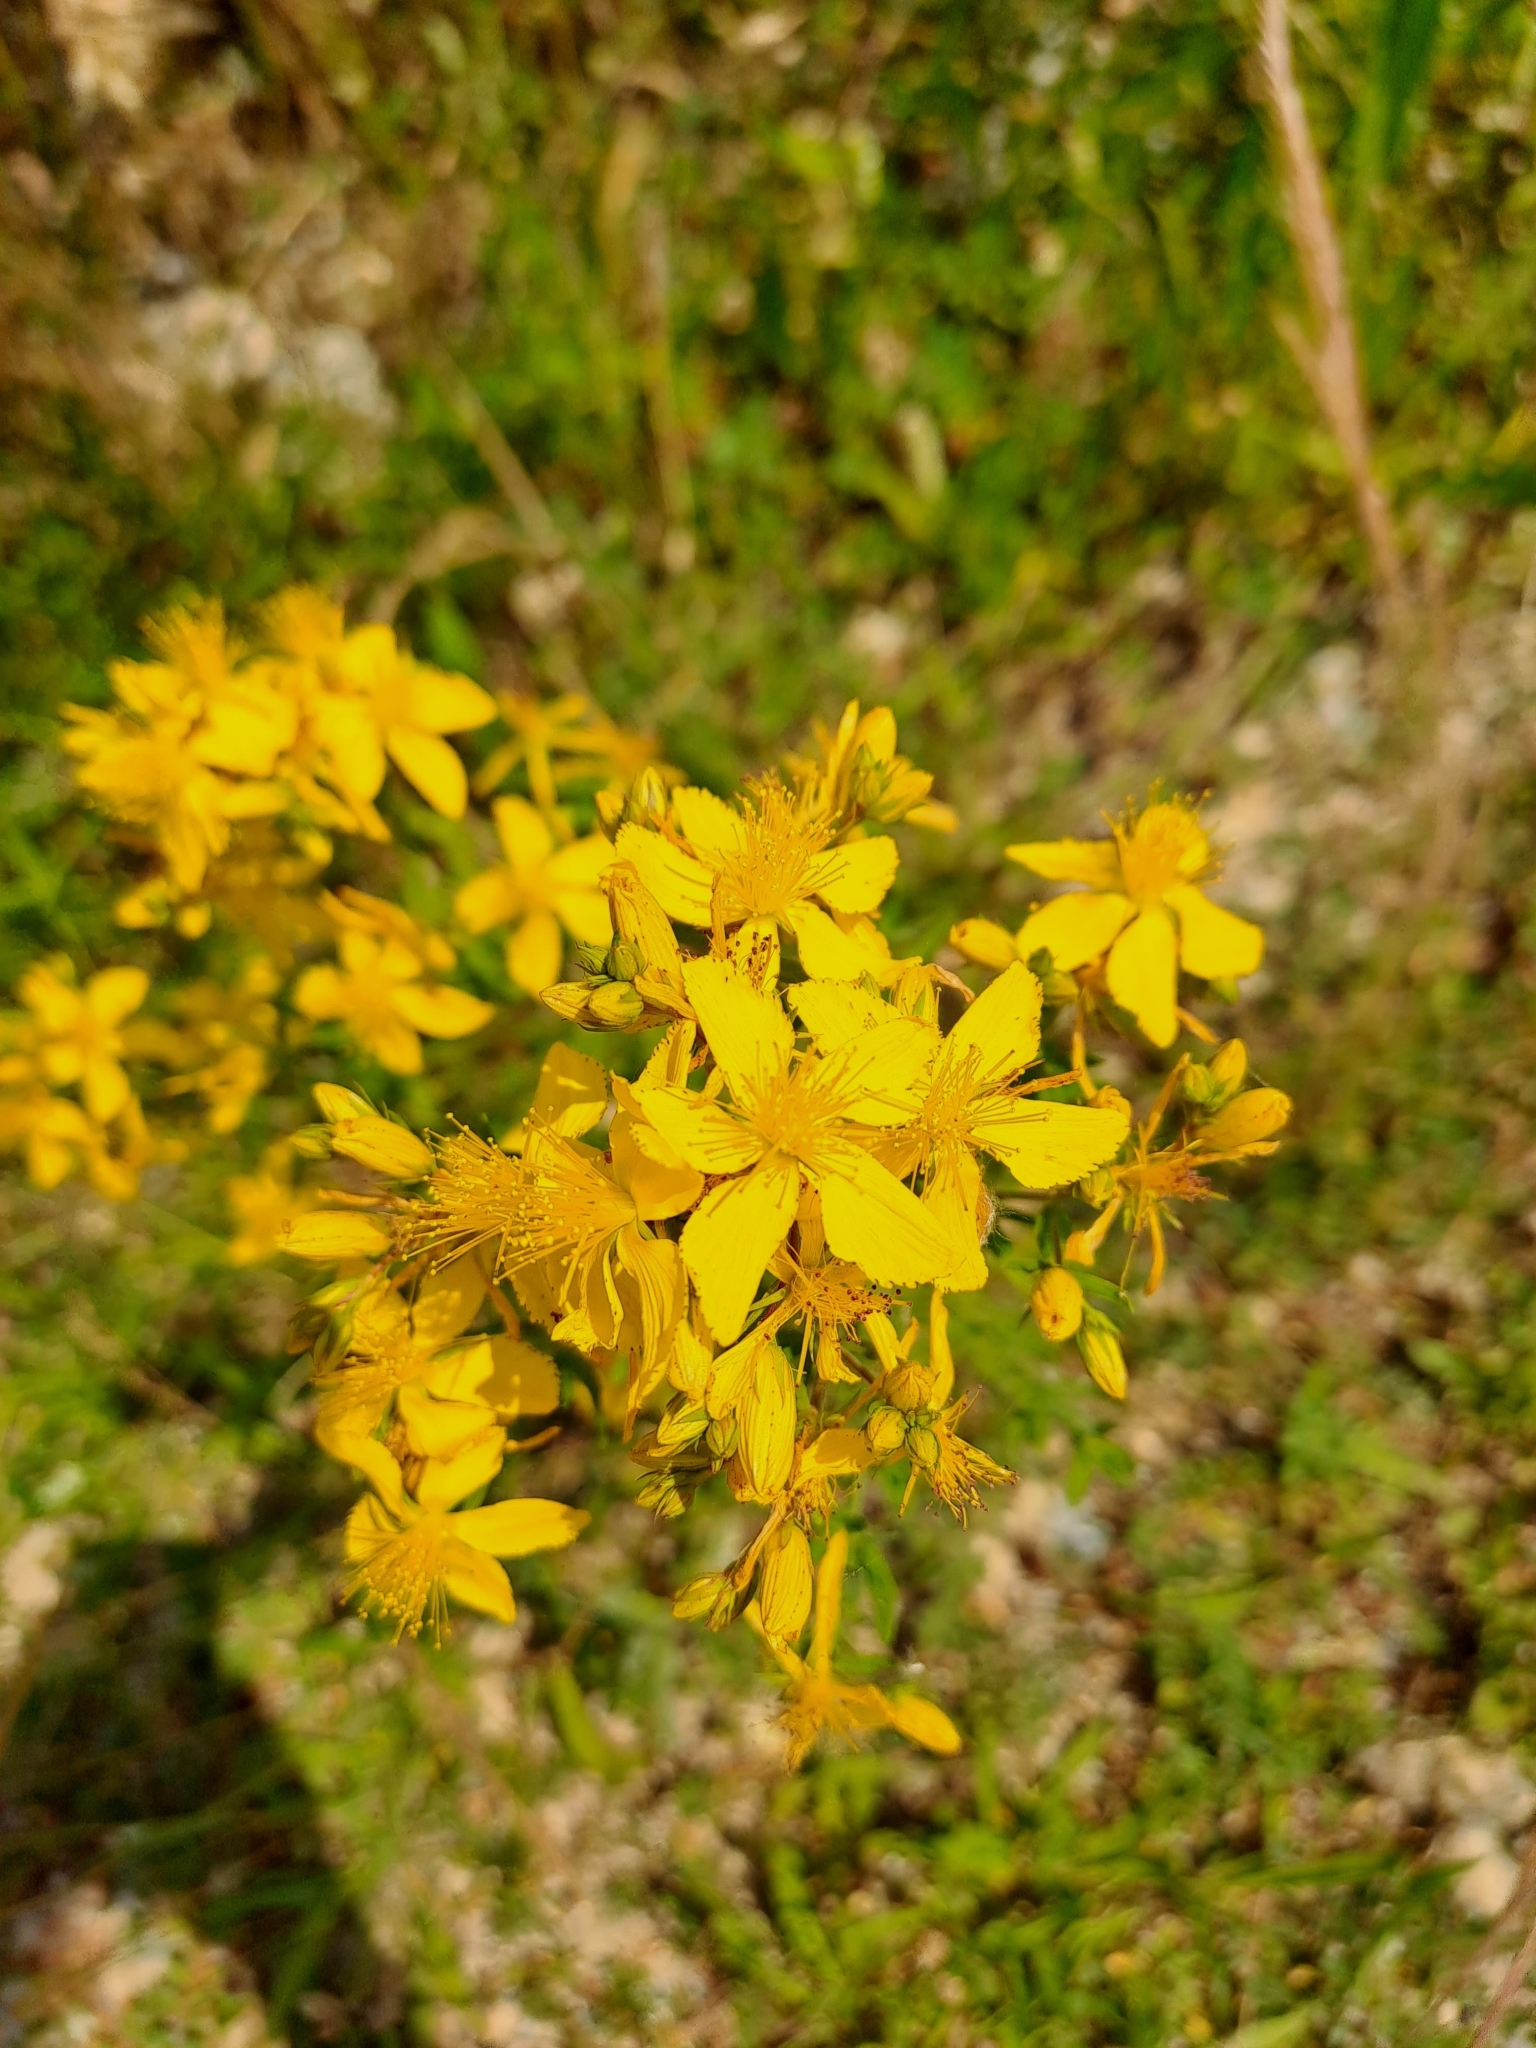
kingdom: Plantae
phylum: Tracheophyta
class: Magnoliopsida
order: Malpighiales
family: Hypericaceae
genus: Hypericum
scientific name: Hypericum perforatum
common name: Common st. johnswort
